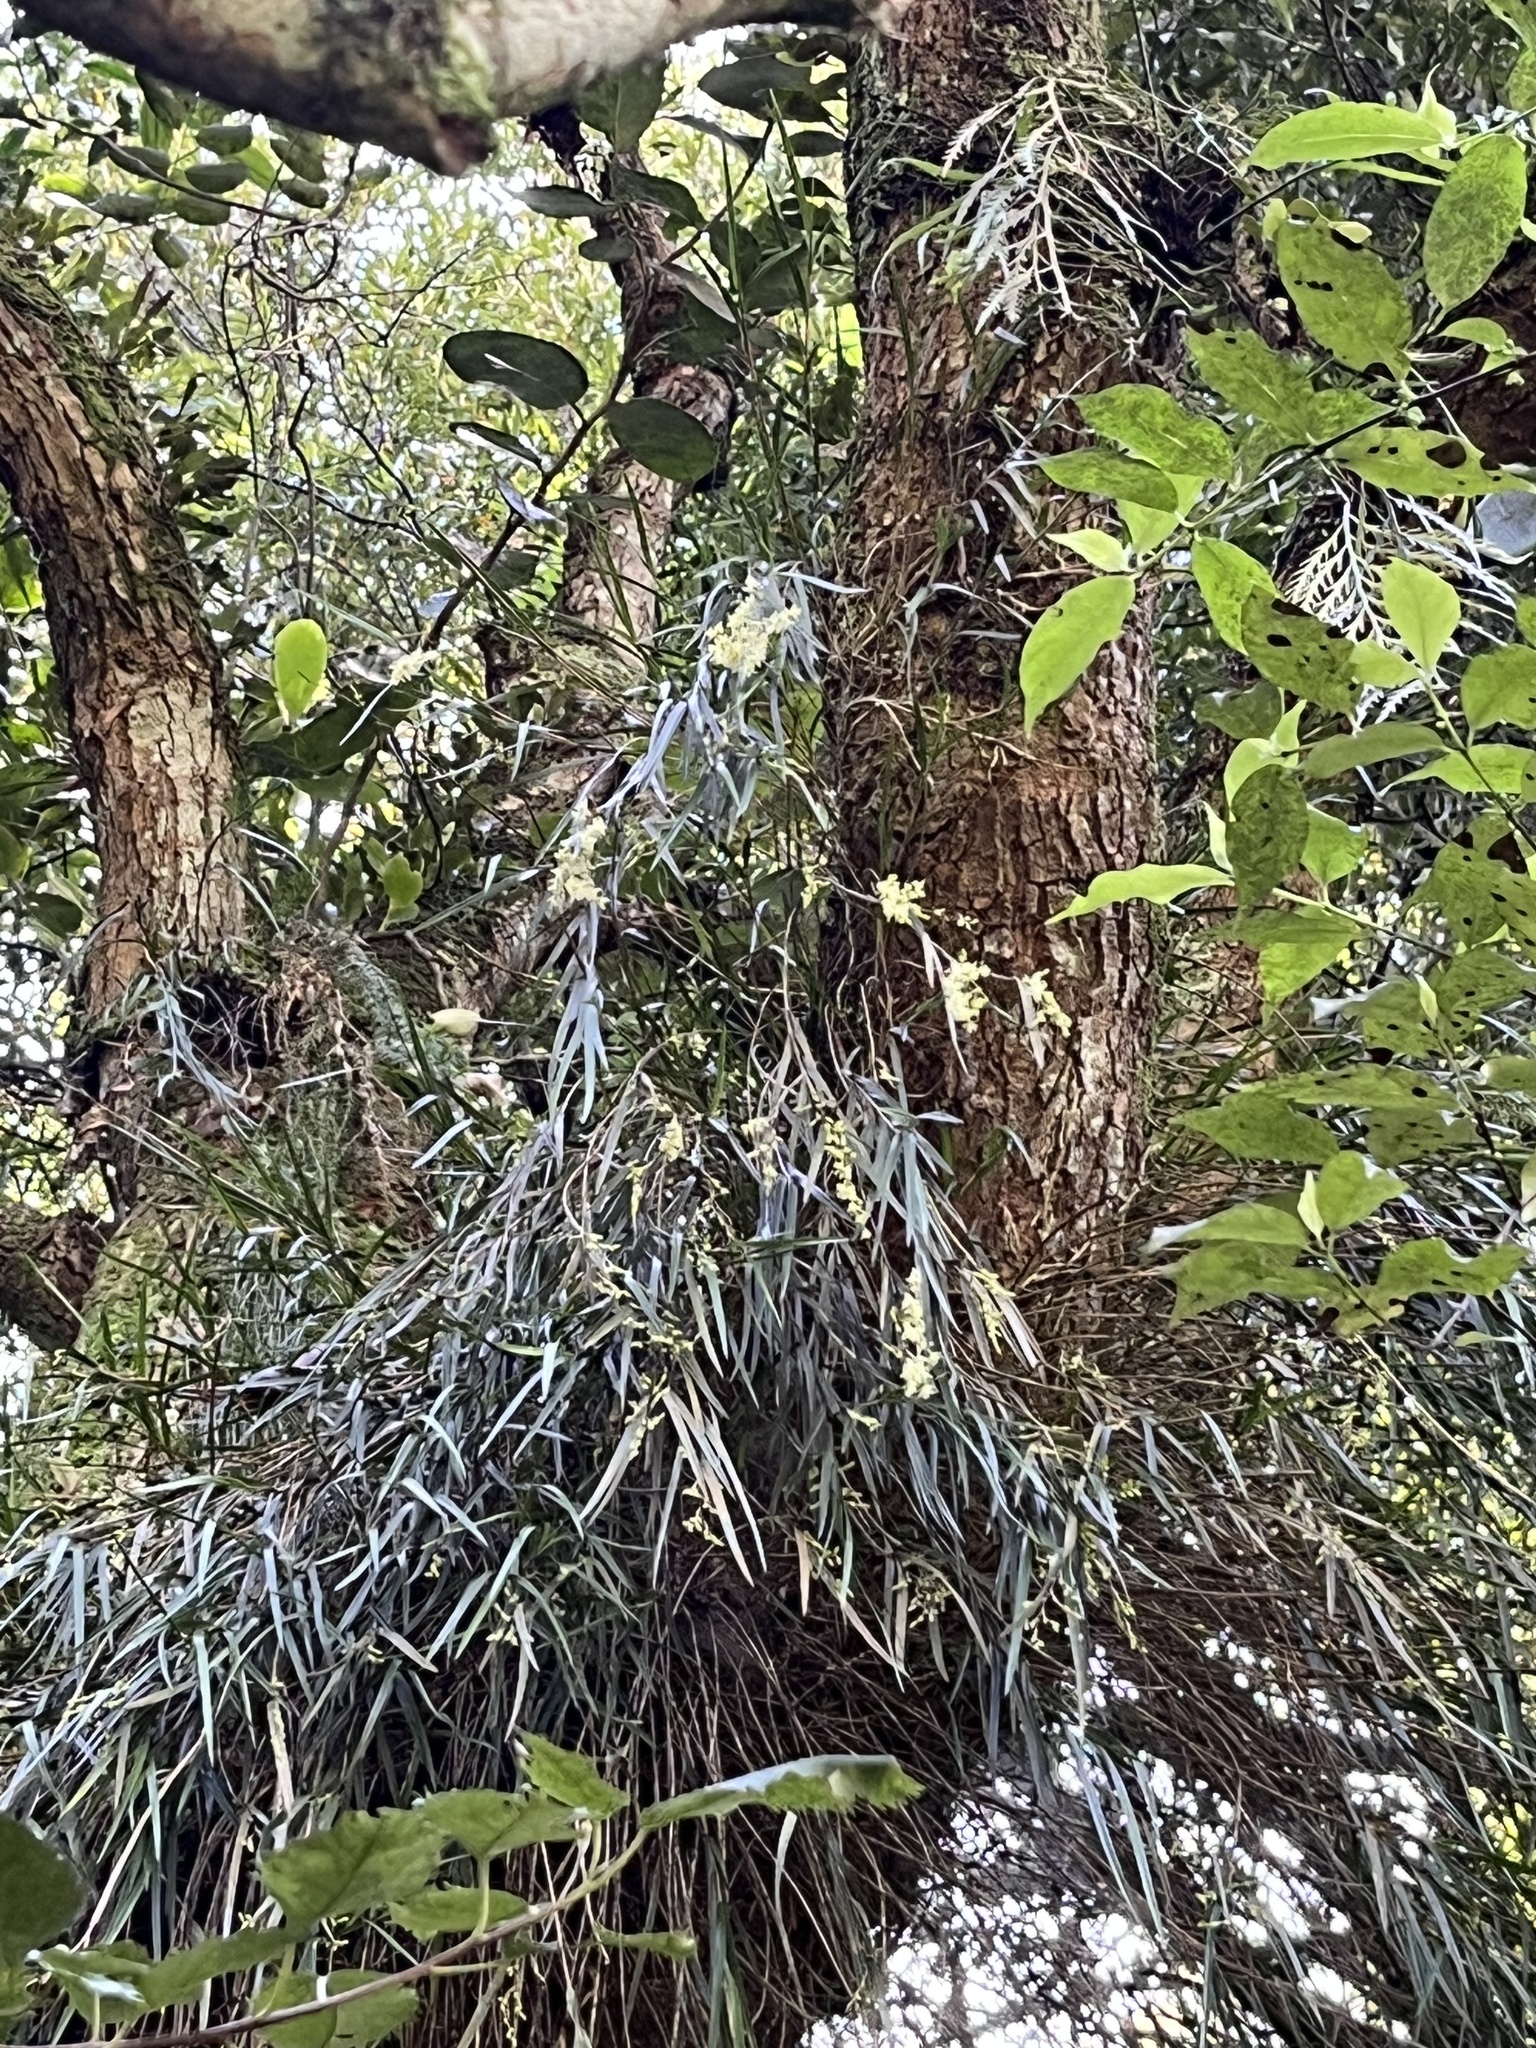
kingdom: Plantae
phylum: Tracheophyta
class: Liliopsida
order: Asparagales
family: Orchidaceae
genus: Earina
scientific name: Earina mucronata
